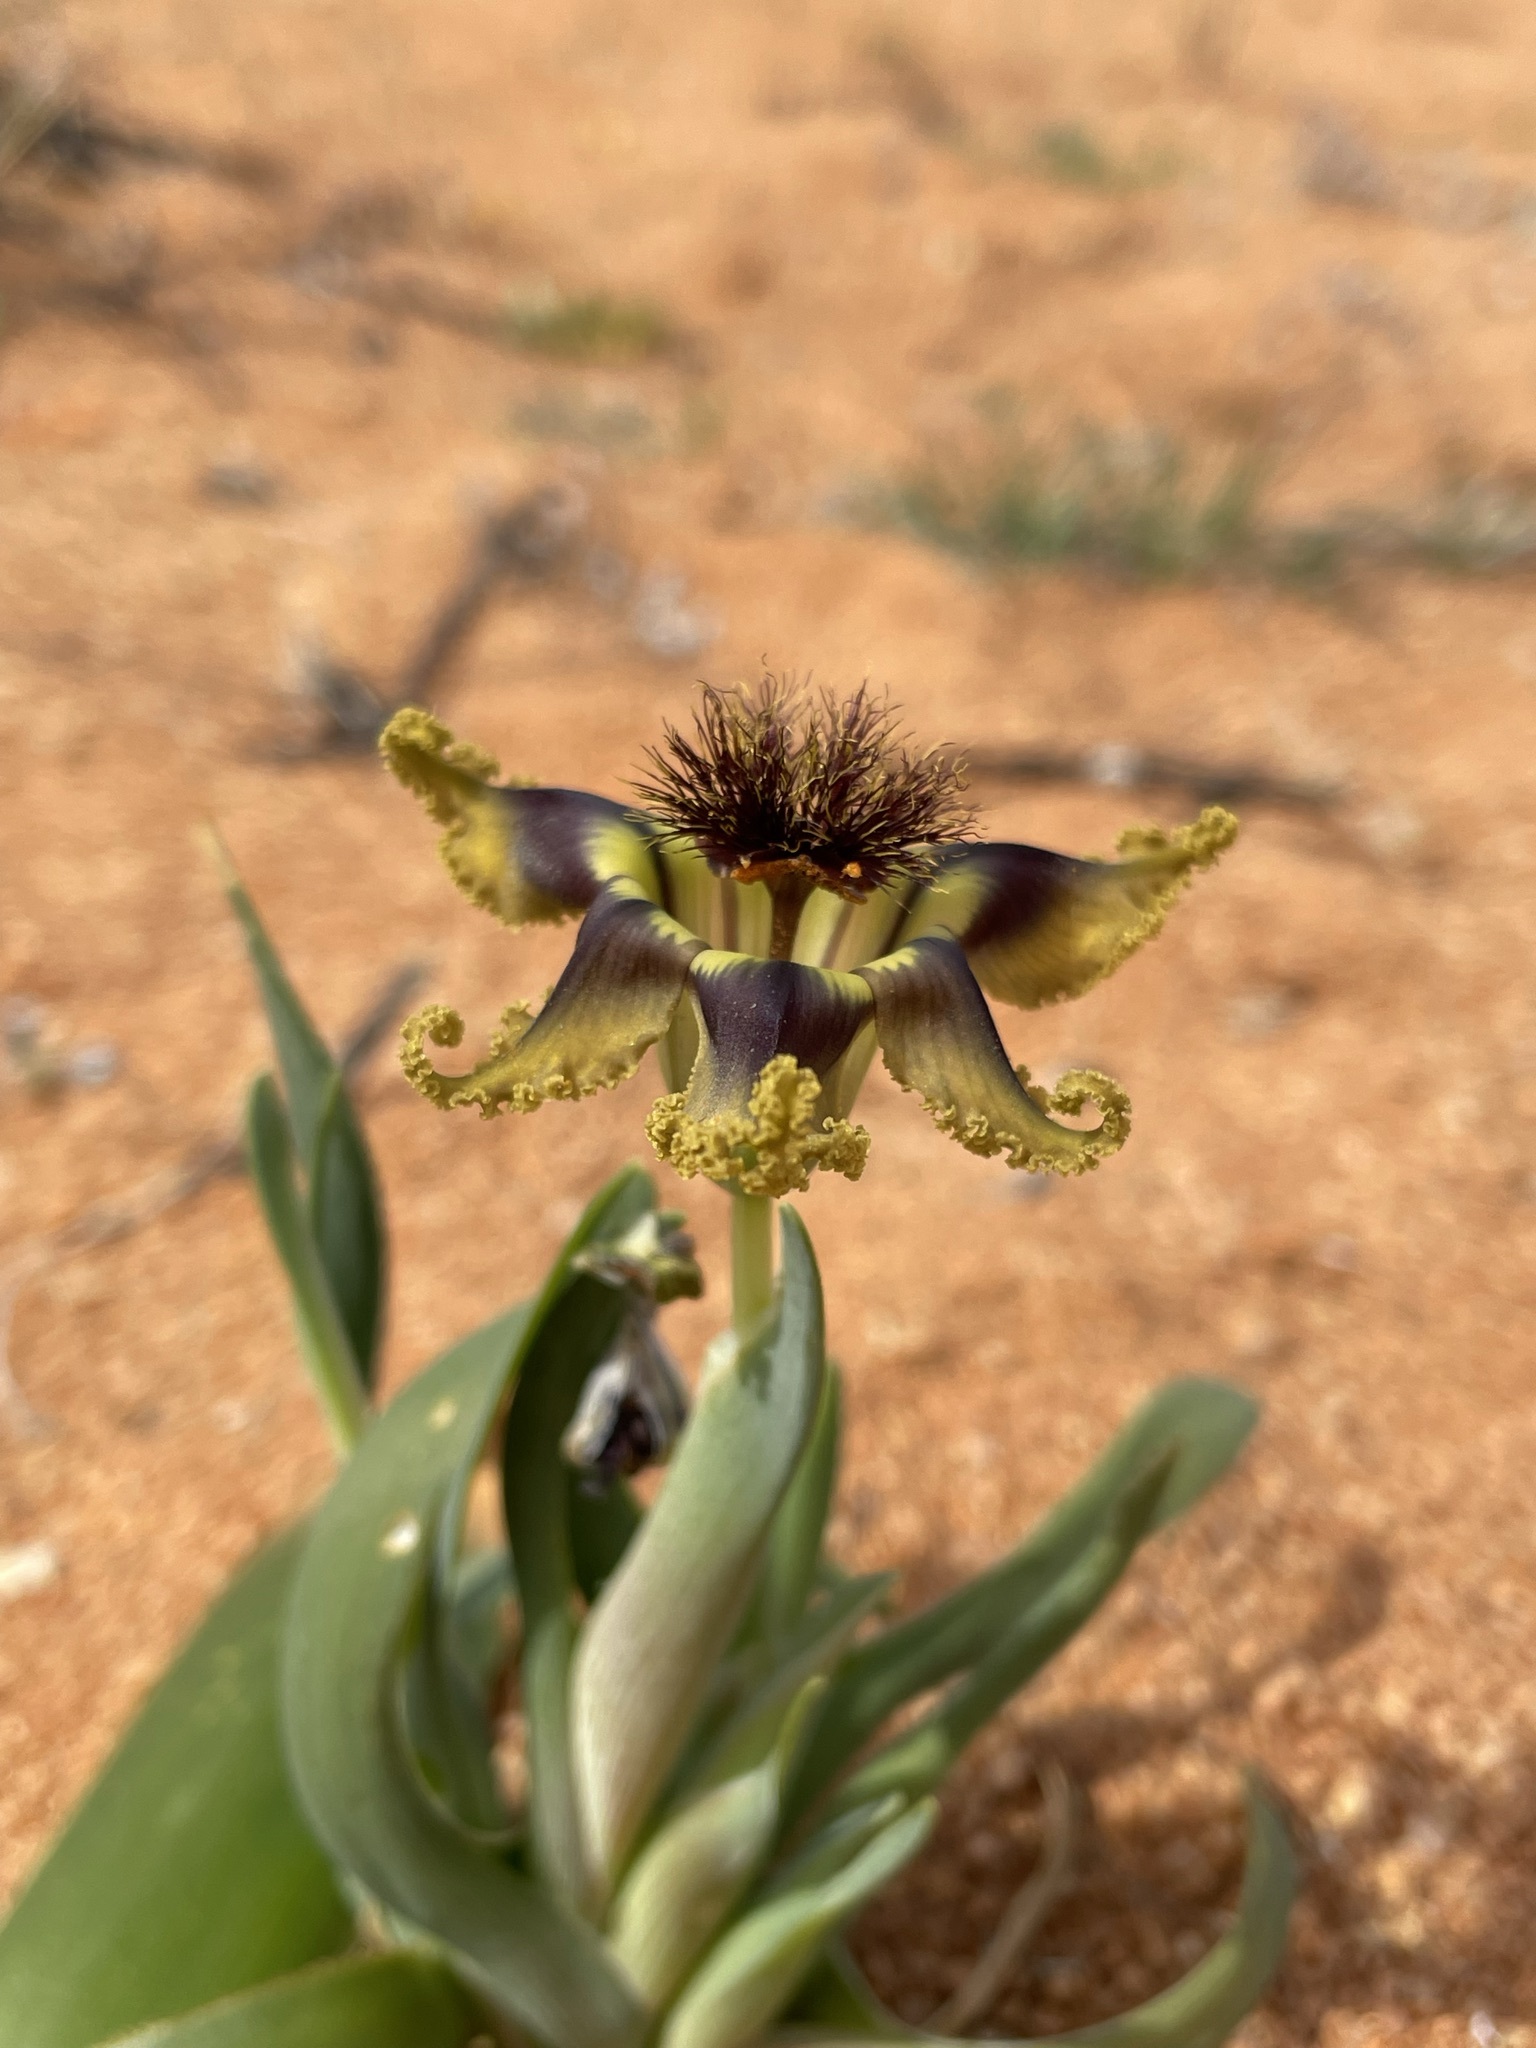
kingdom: Plantae
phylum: Tracheophyta
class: Liliopsida
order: Asparagales
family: Iridaceae
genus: Ferraria
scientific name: Ferraria variabilis
